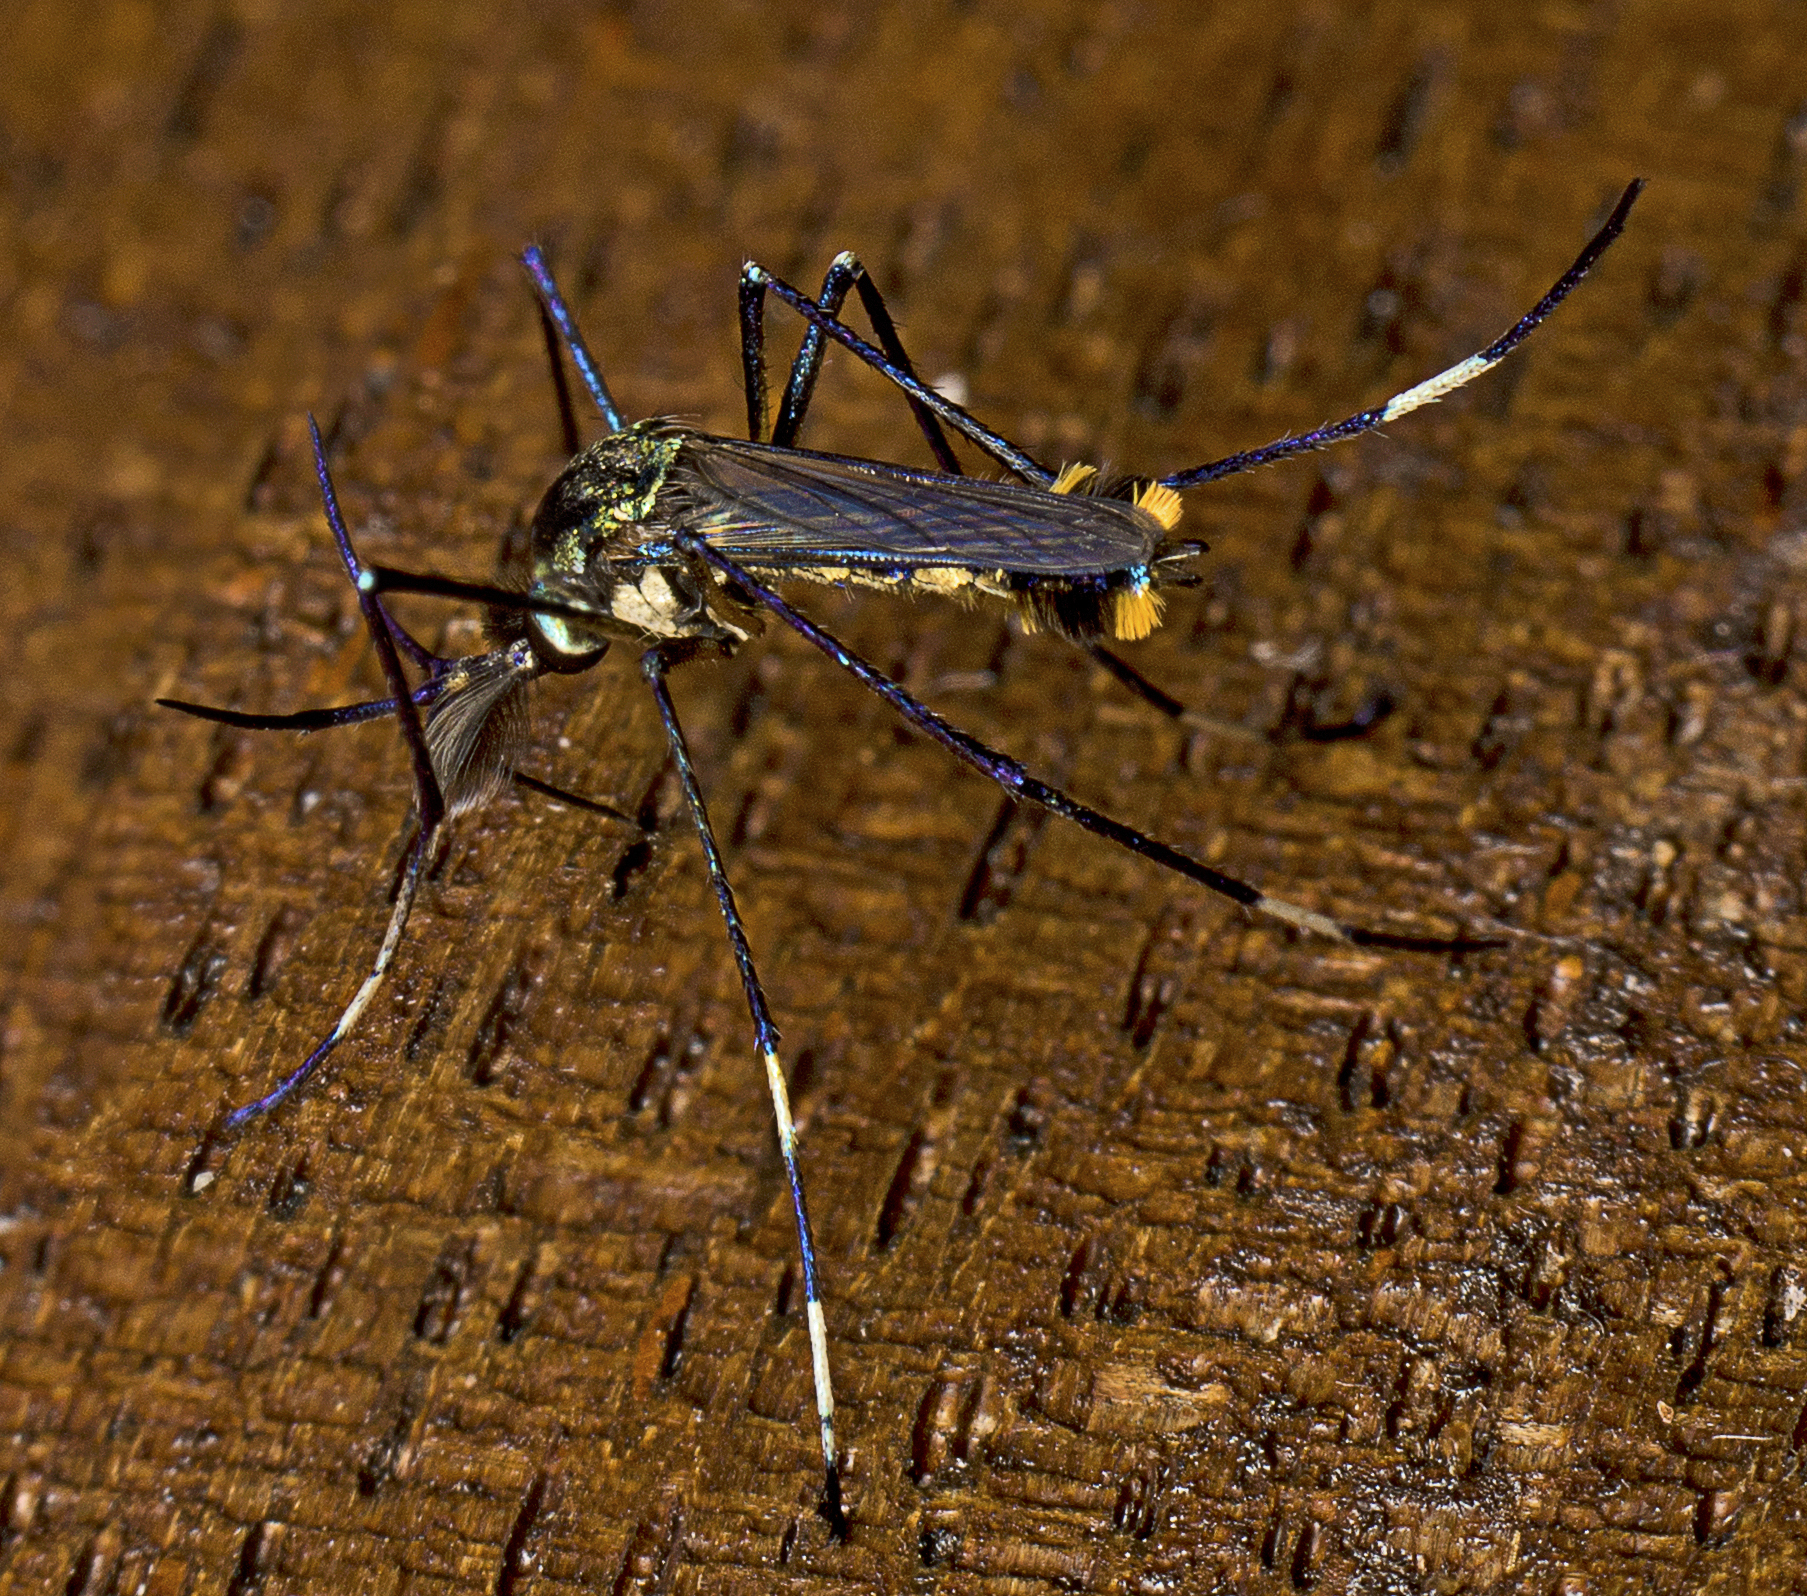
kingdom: Animalia
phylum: Arthropoda
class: Insecta
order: Diptera
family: Culicidae
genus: Toxorhynchites
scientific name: Toxorhynchites speciosus
